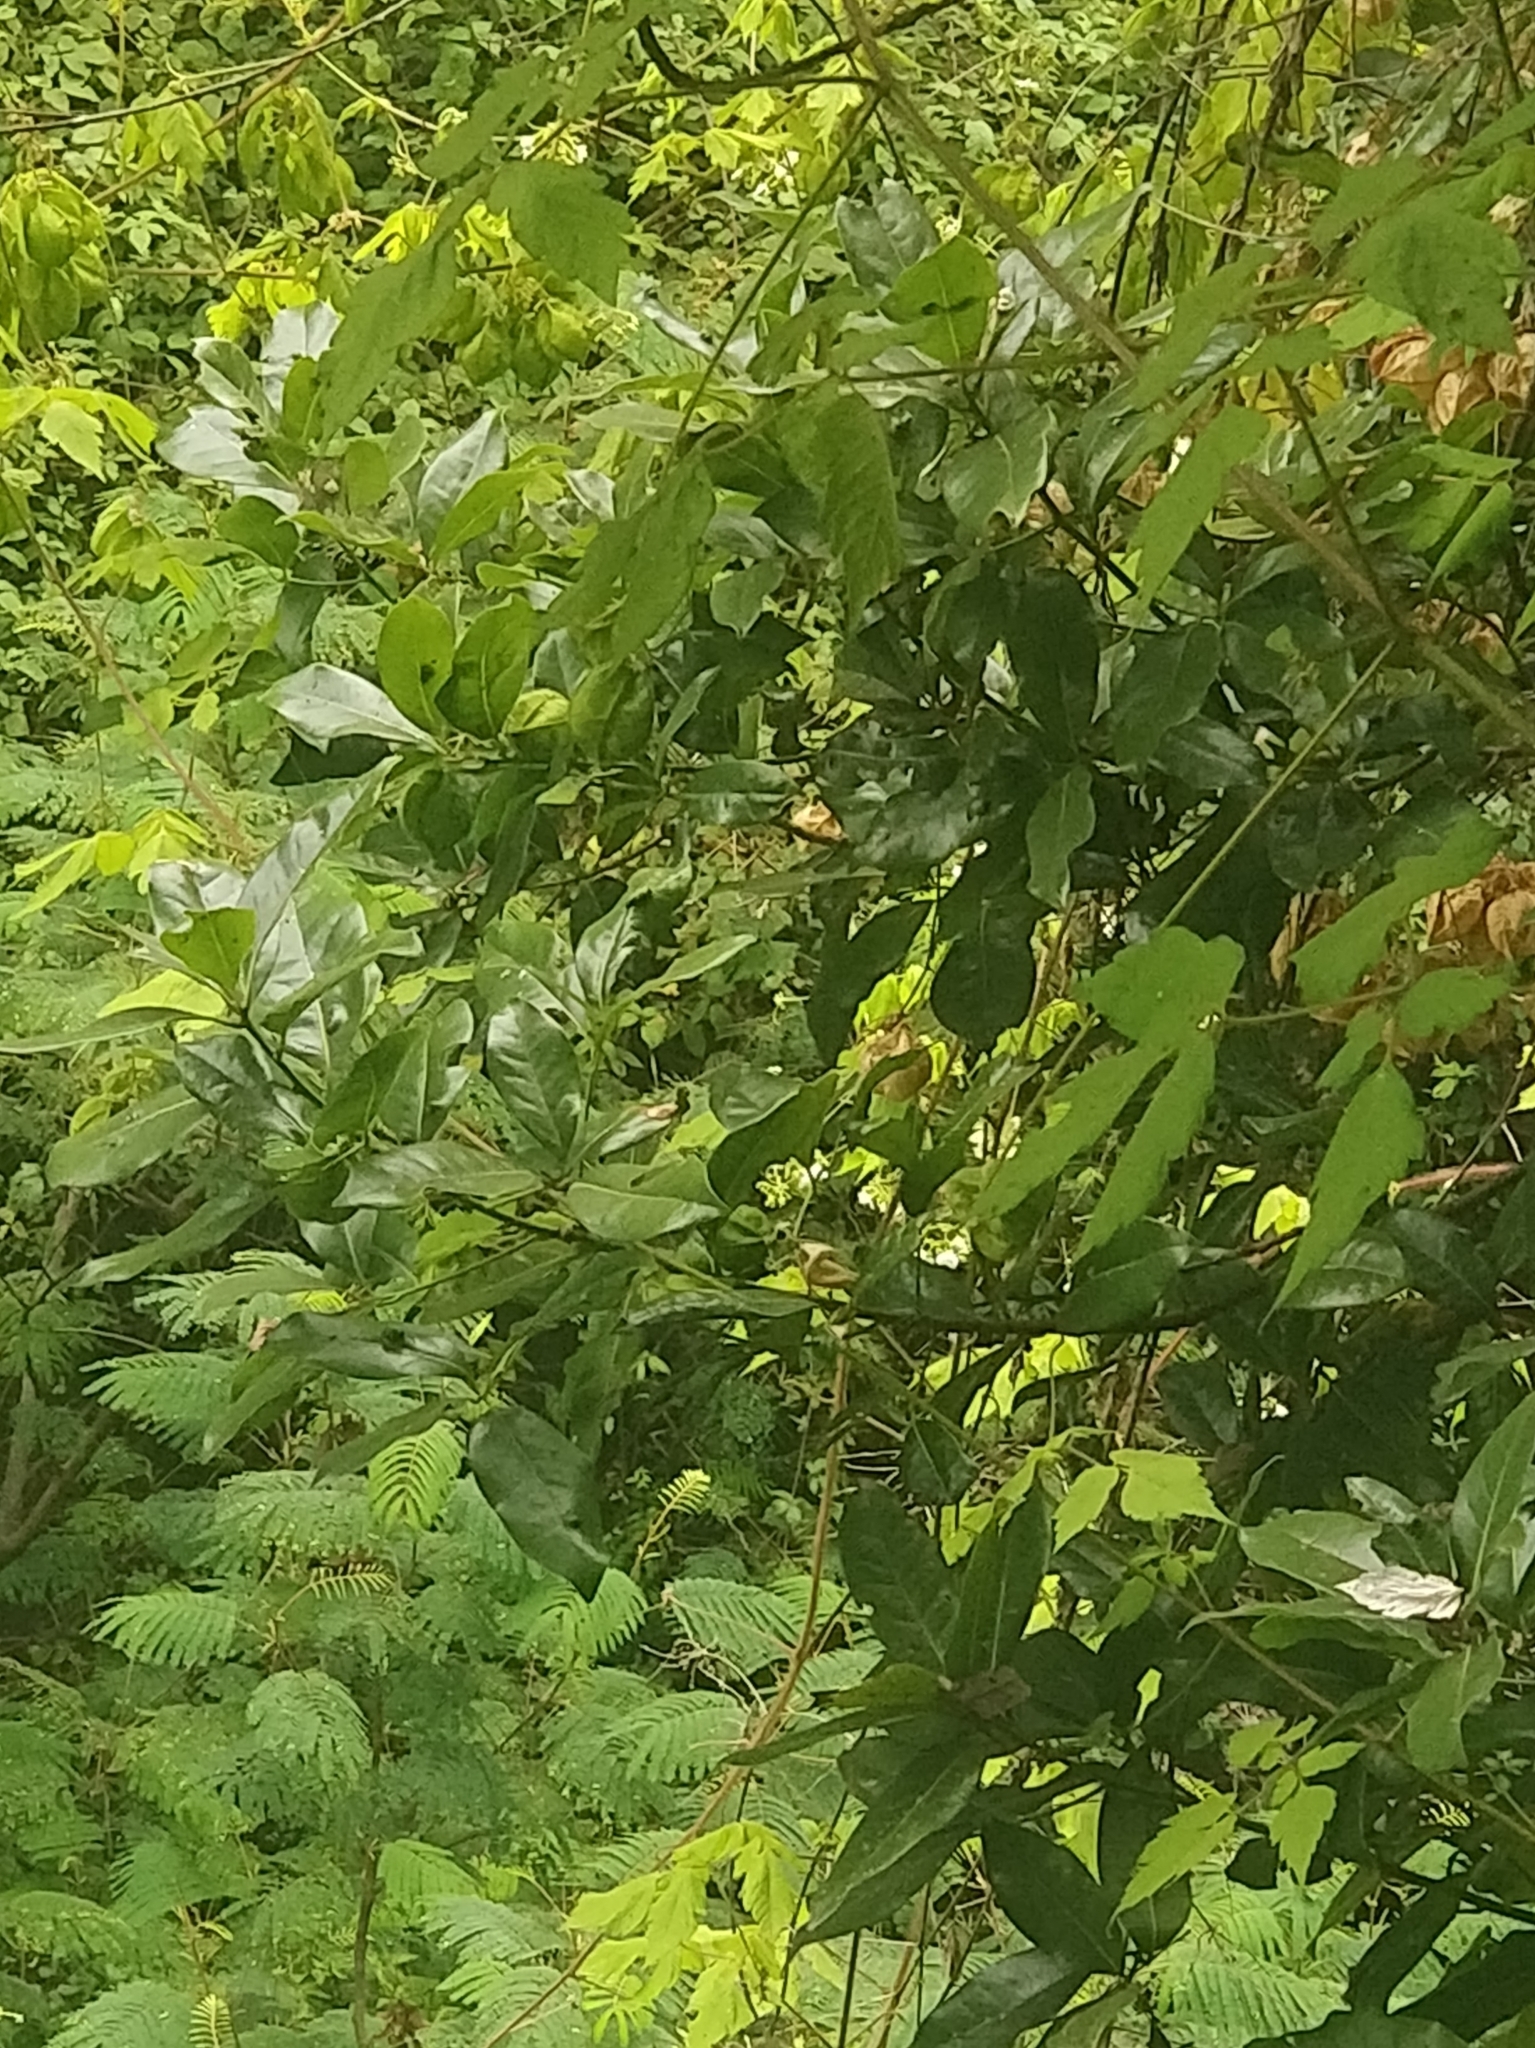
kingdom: Plantae
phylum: Tracheophyta
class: Magnoliopsida
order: Laurales
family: Lauraceae
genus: Apollonias
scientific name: Apollonias barbujana
